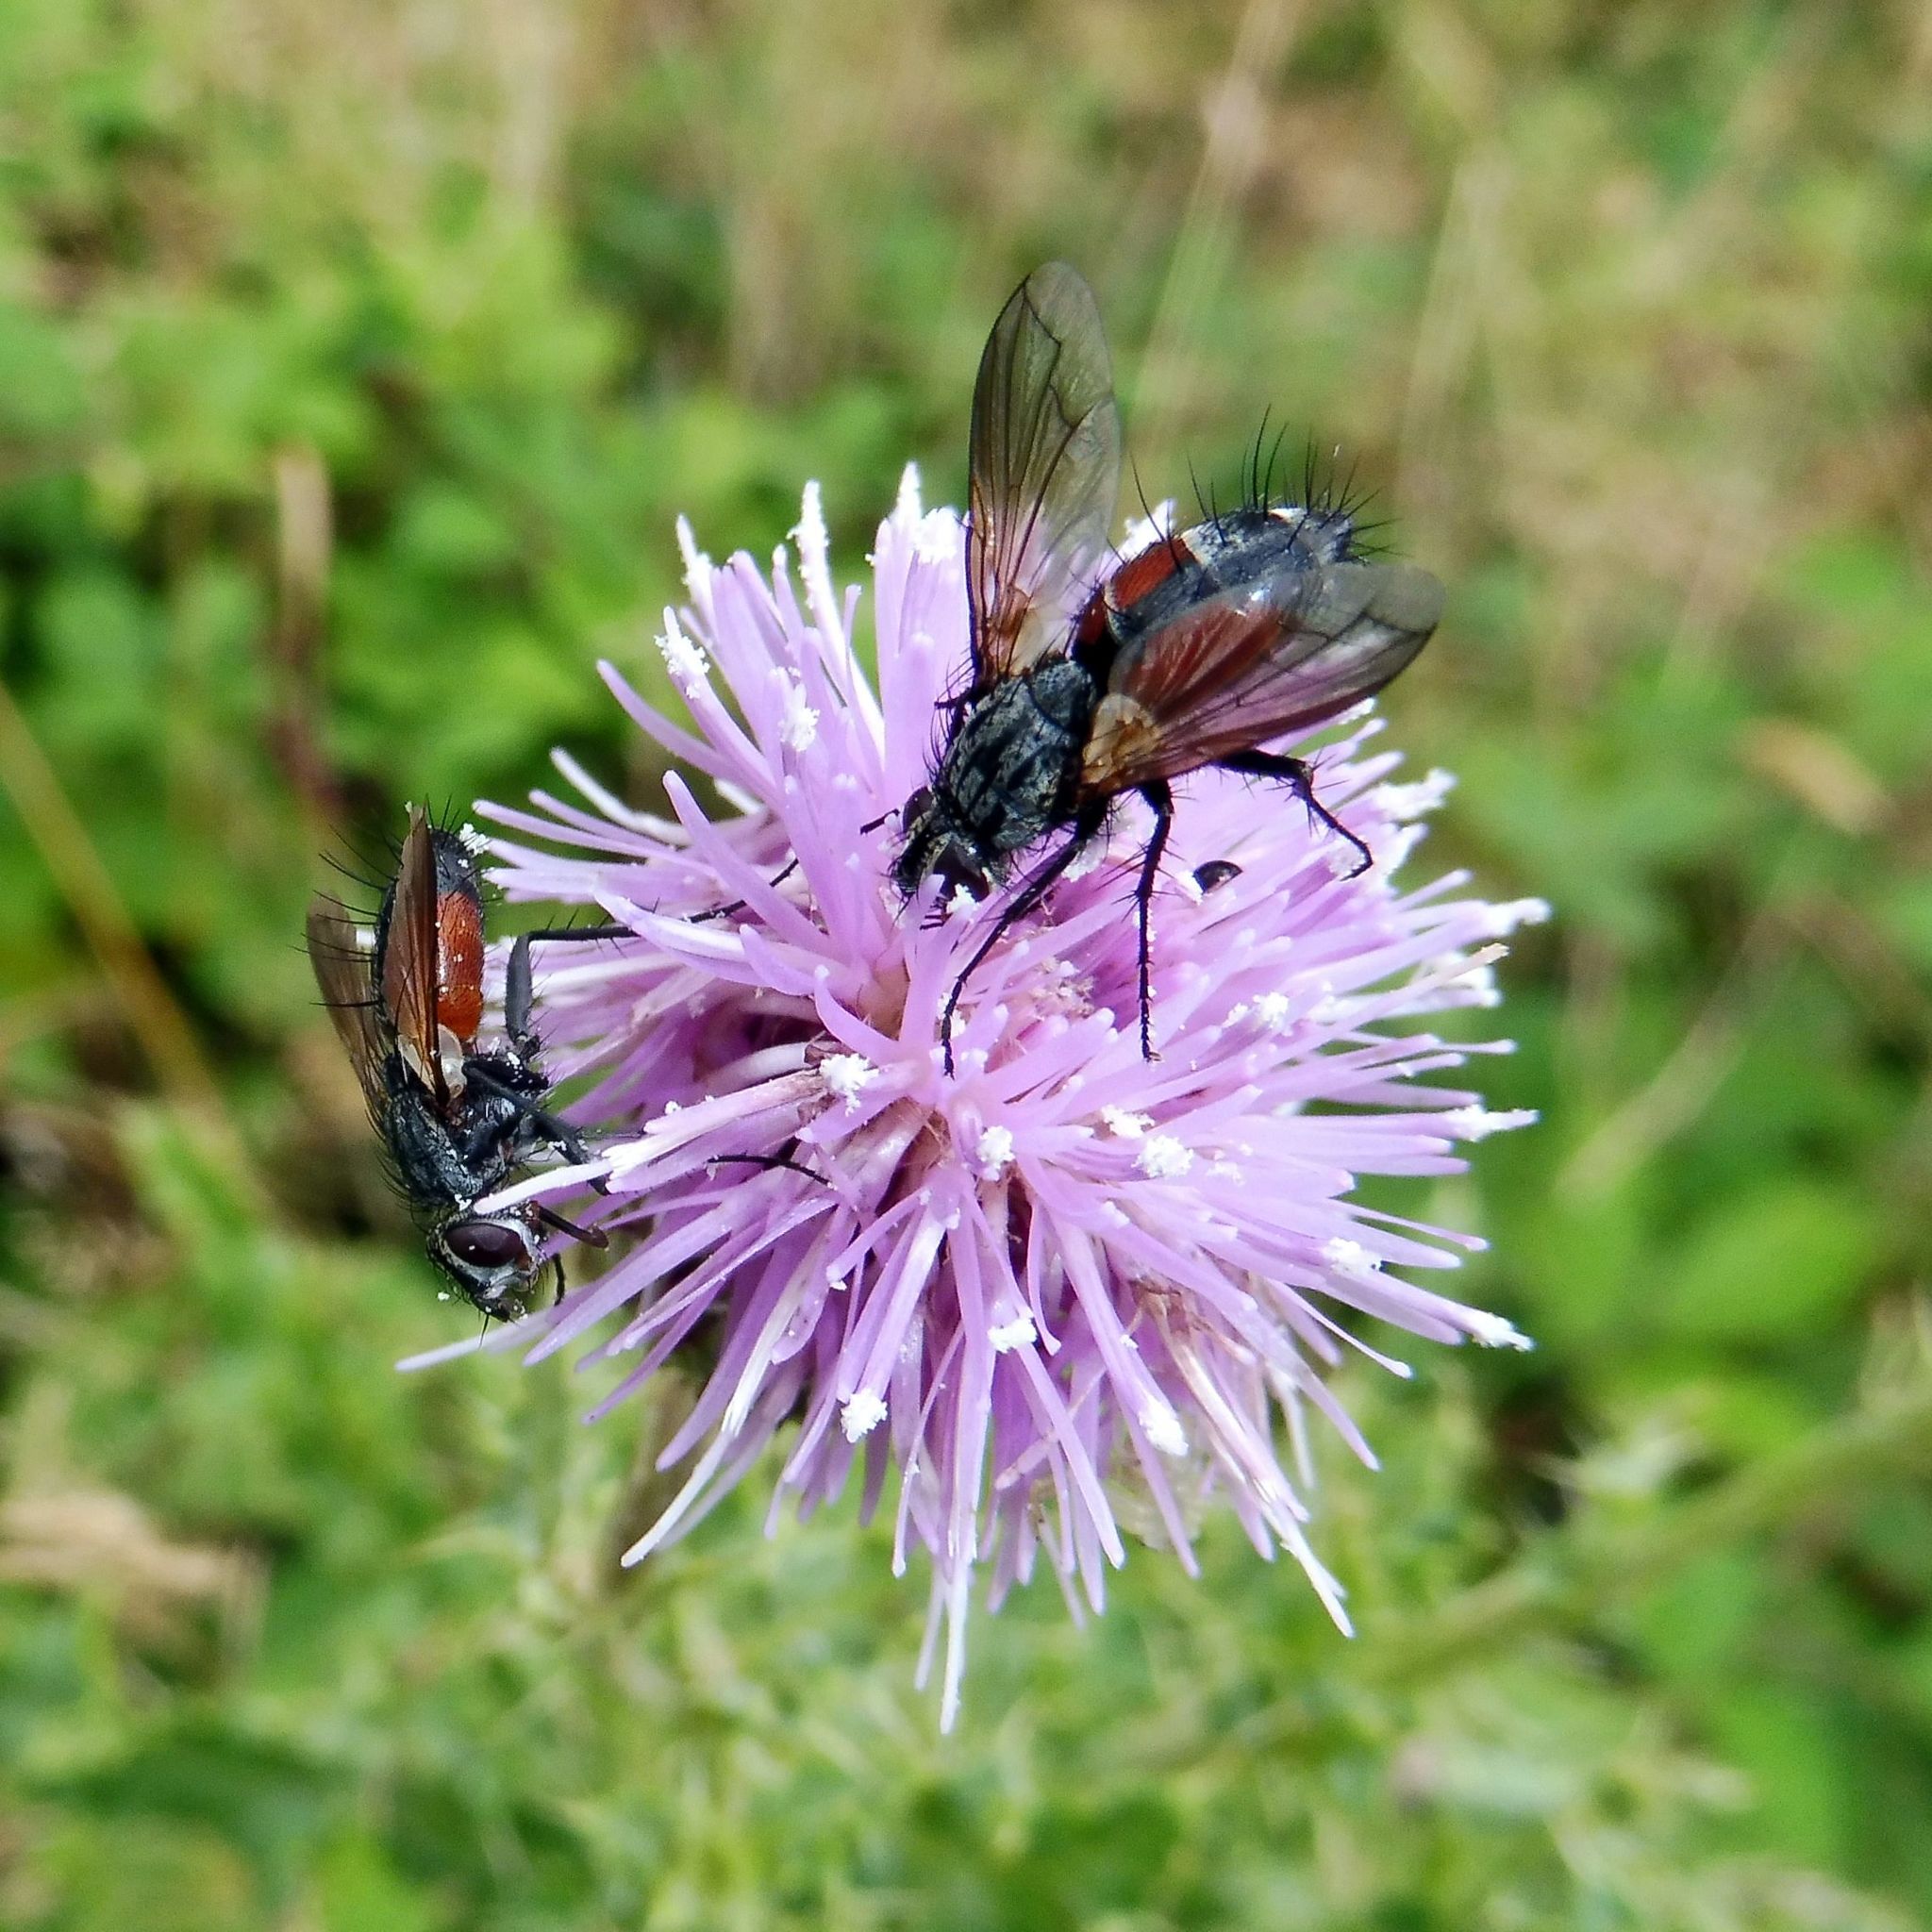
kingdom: Animalia
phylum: Arthropoda
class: Insecta
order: Diptera
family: Tachinidae
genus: Eriothrix
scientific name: Eriothrix rufomaculatus
